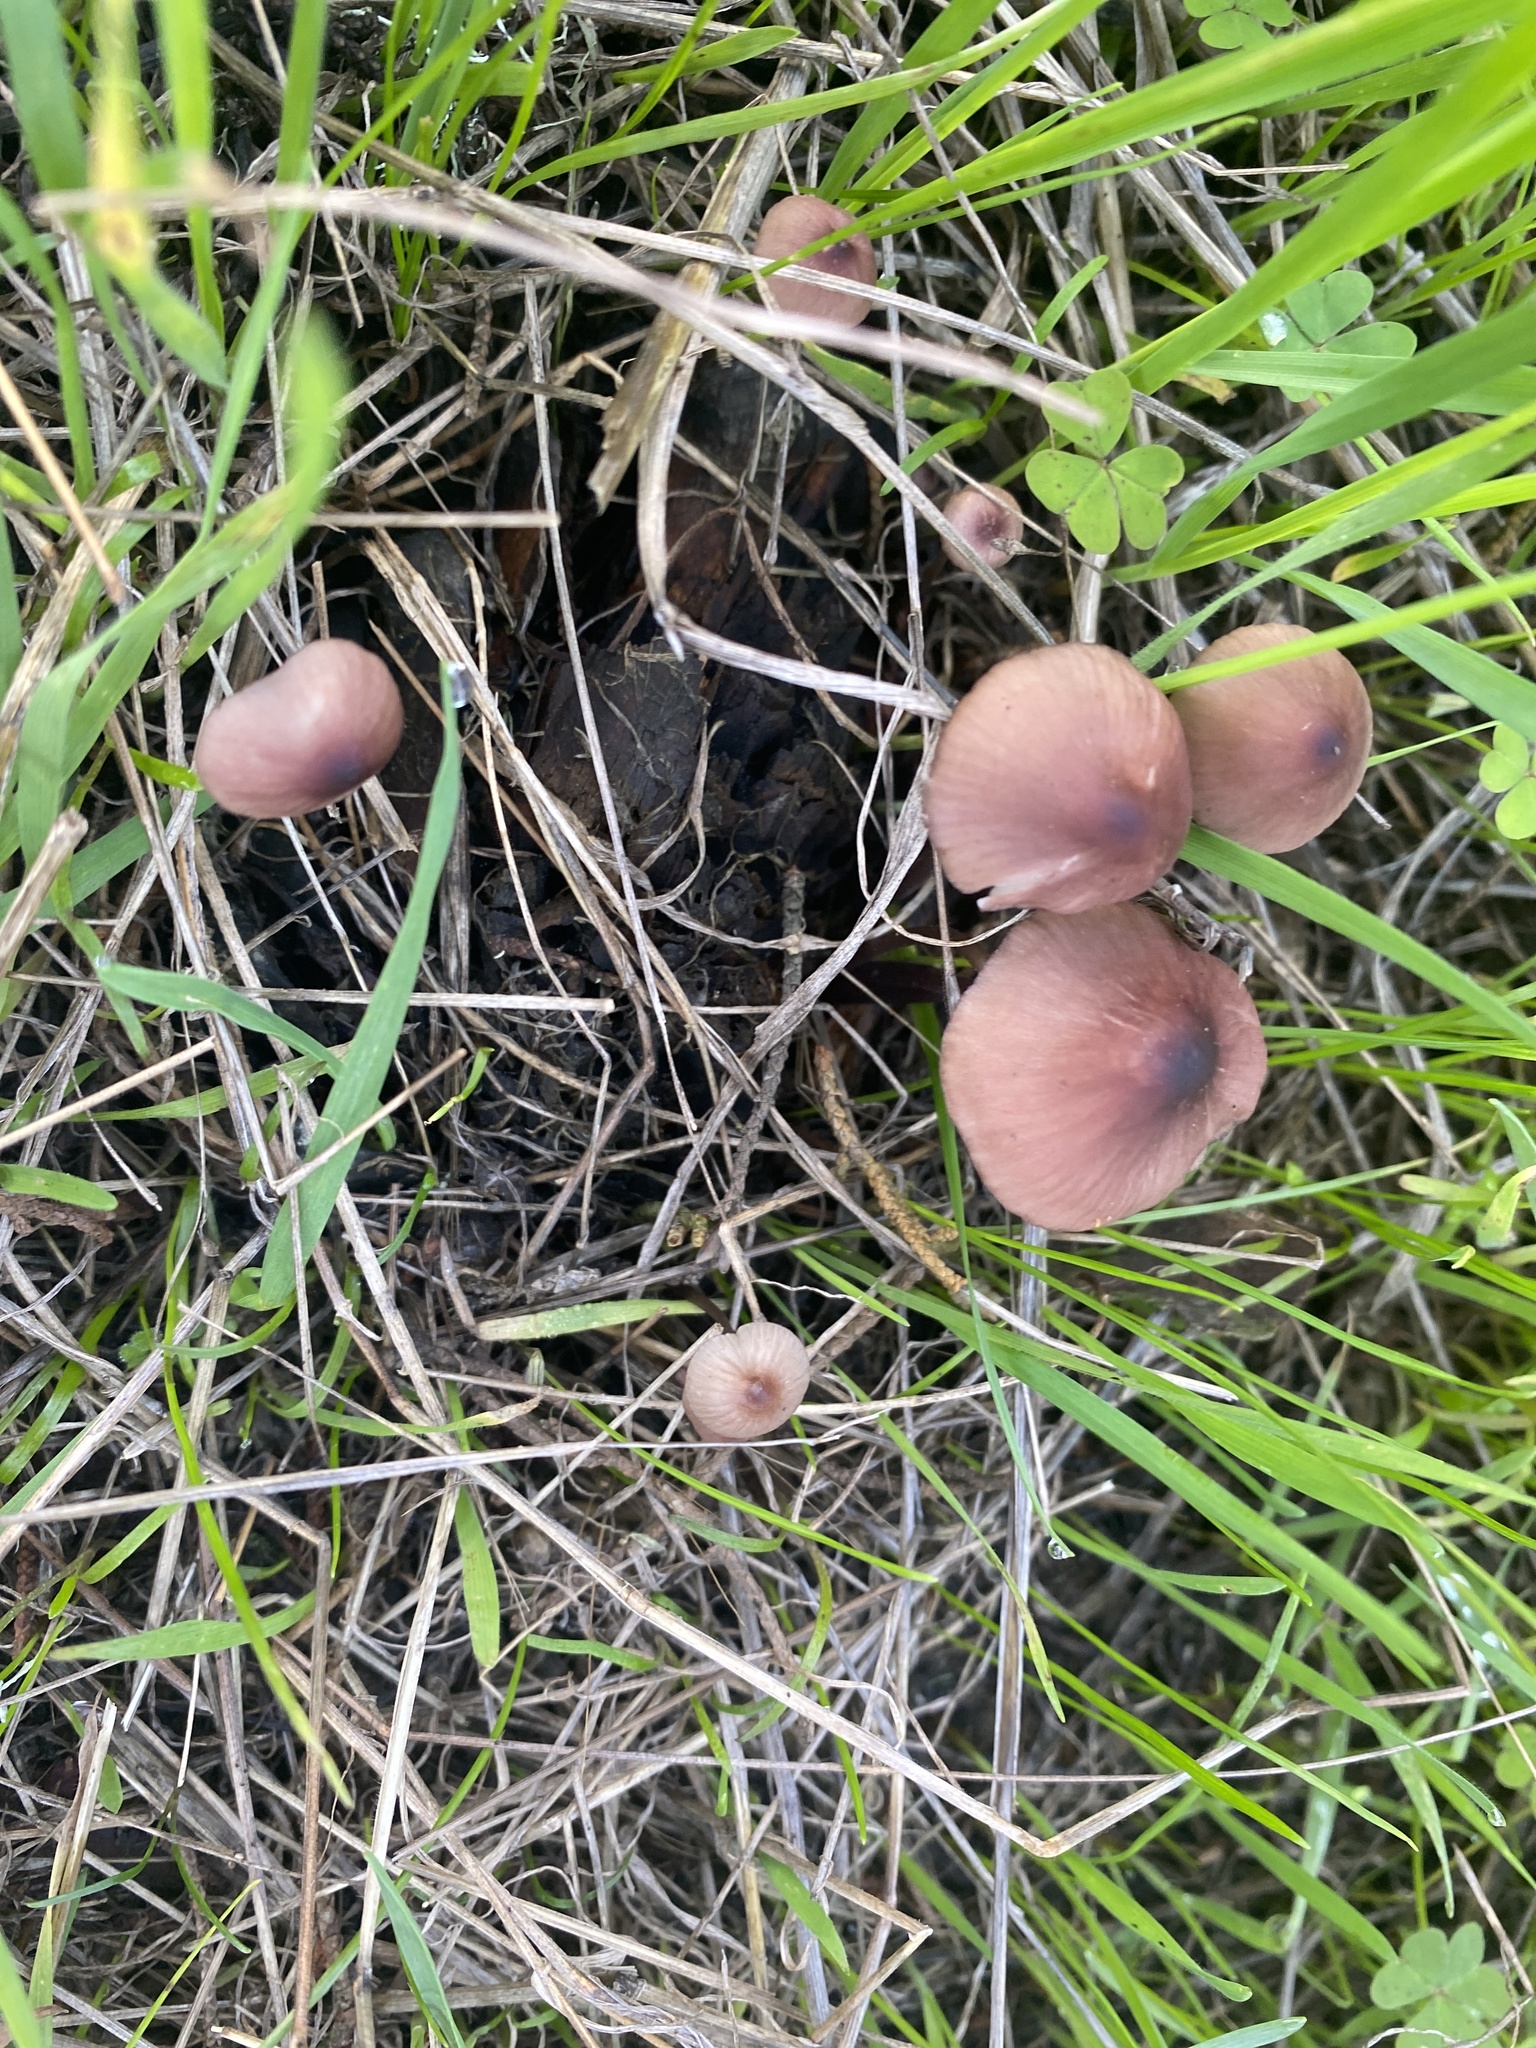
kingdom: Fungi
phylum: Basidiomycota
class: Agaricomycetes
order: Agaricales
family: Mycenaceae
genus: Mycena
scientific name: Mycena purpureofusca
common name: Purple edge bonnet
